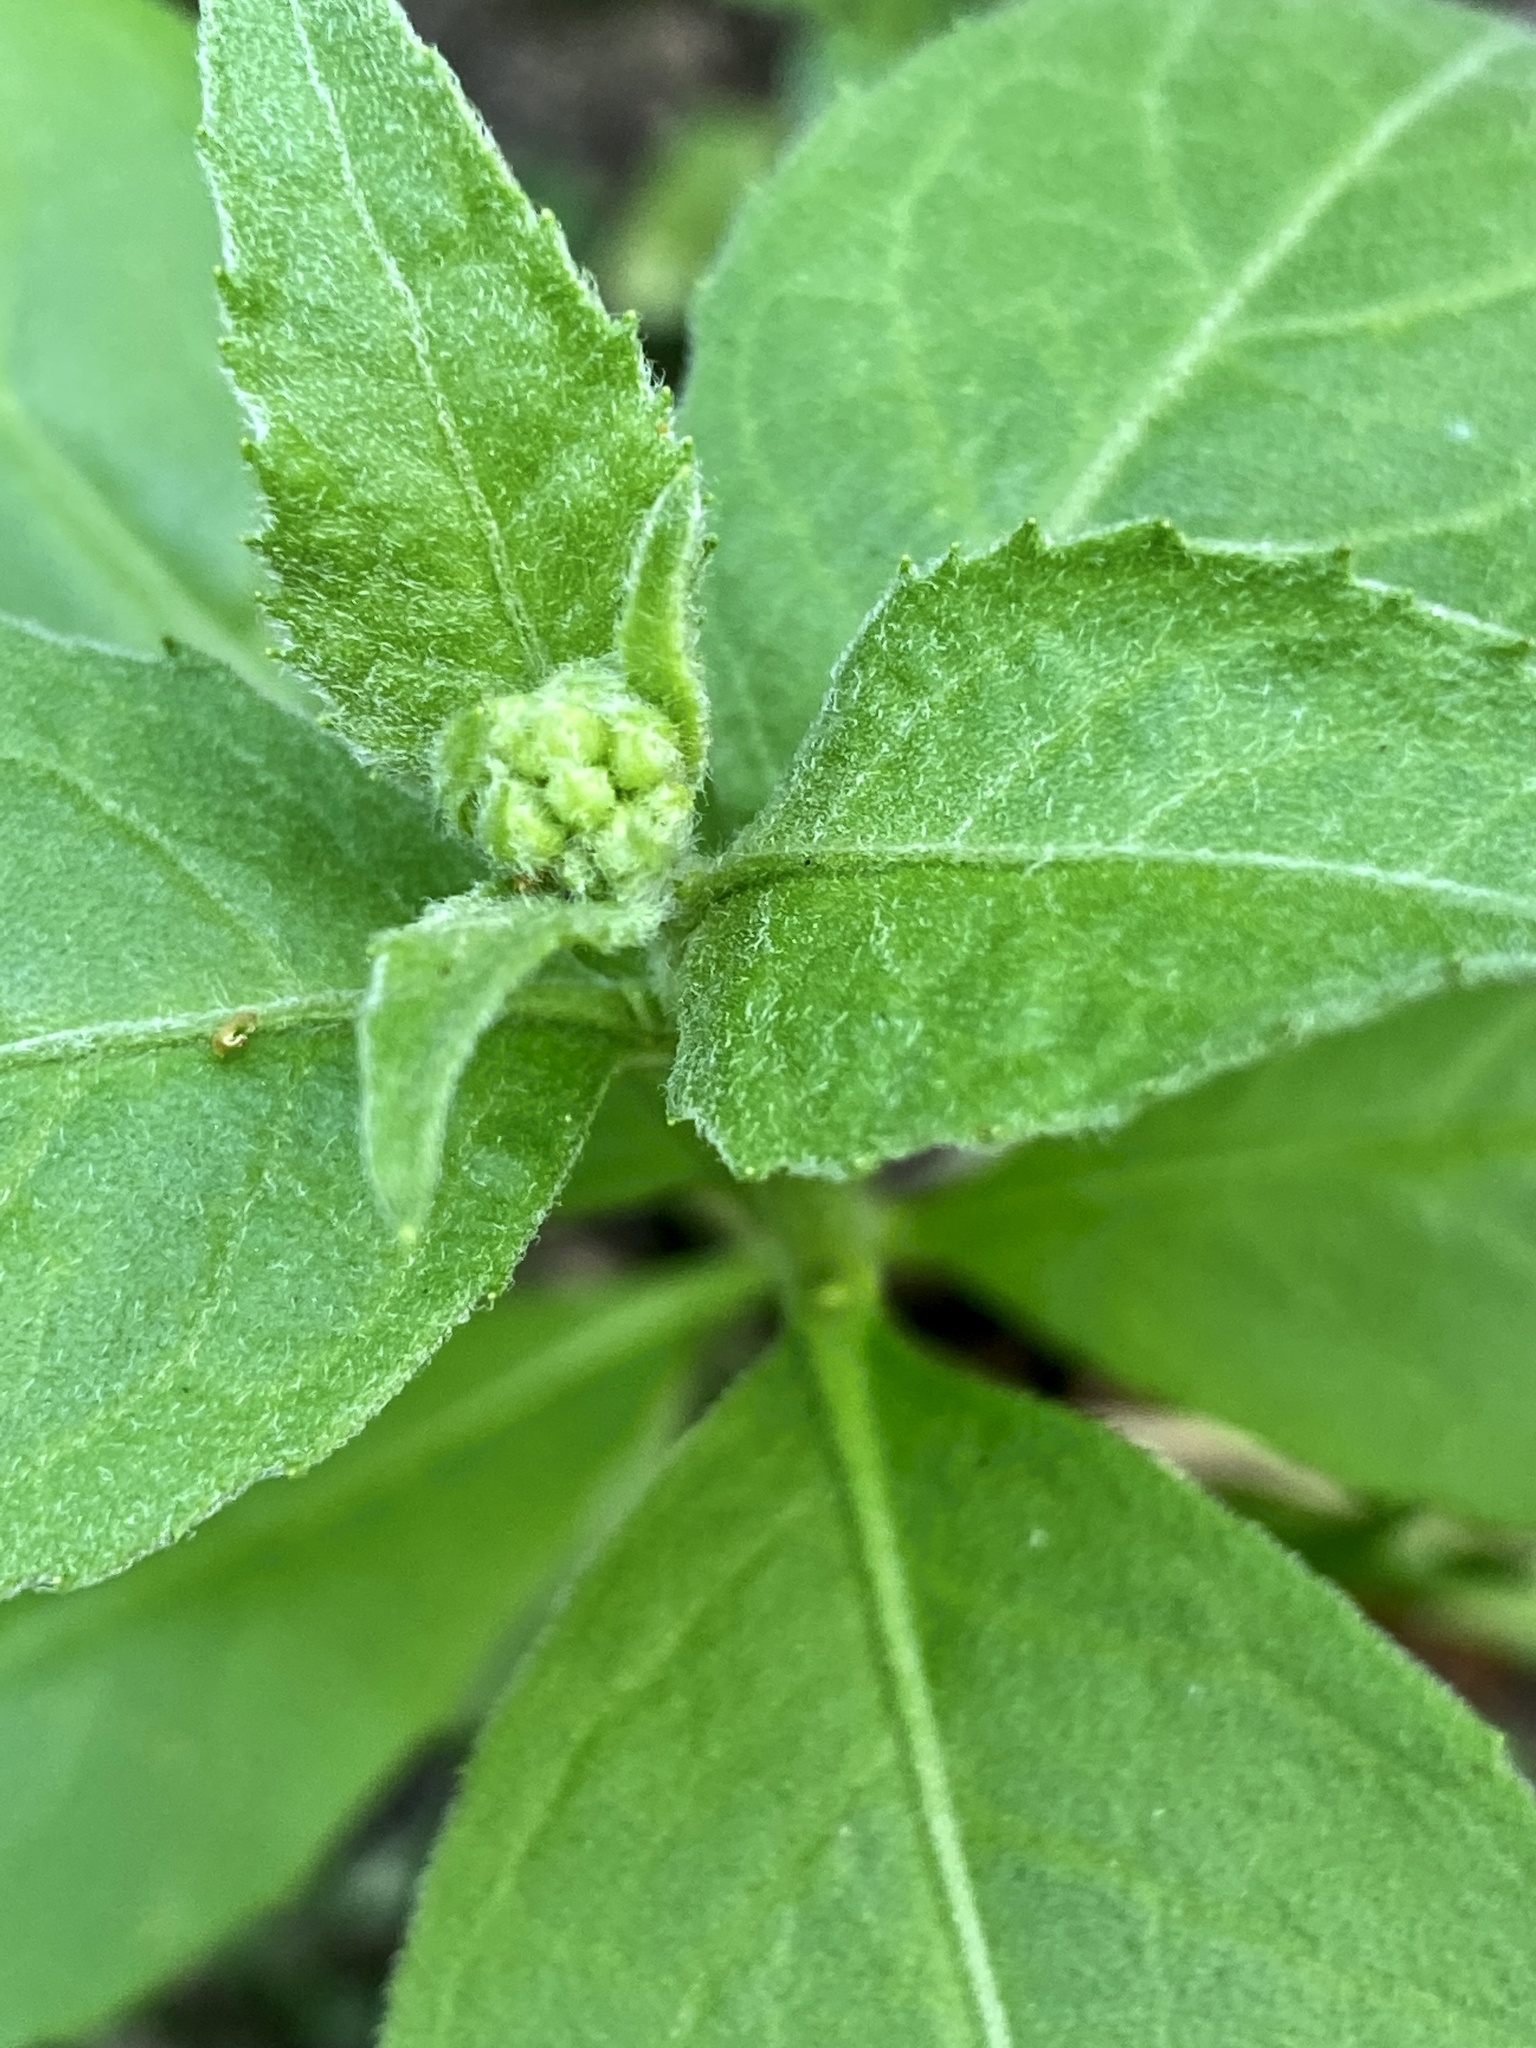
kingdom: Plantae
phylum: Tracheophyta
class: Magnoliopsida
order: Asterales
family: Asteraceae
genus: Pluchea
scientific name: Pluchea odorata
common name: Saltmarsh fleabane
